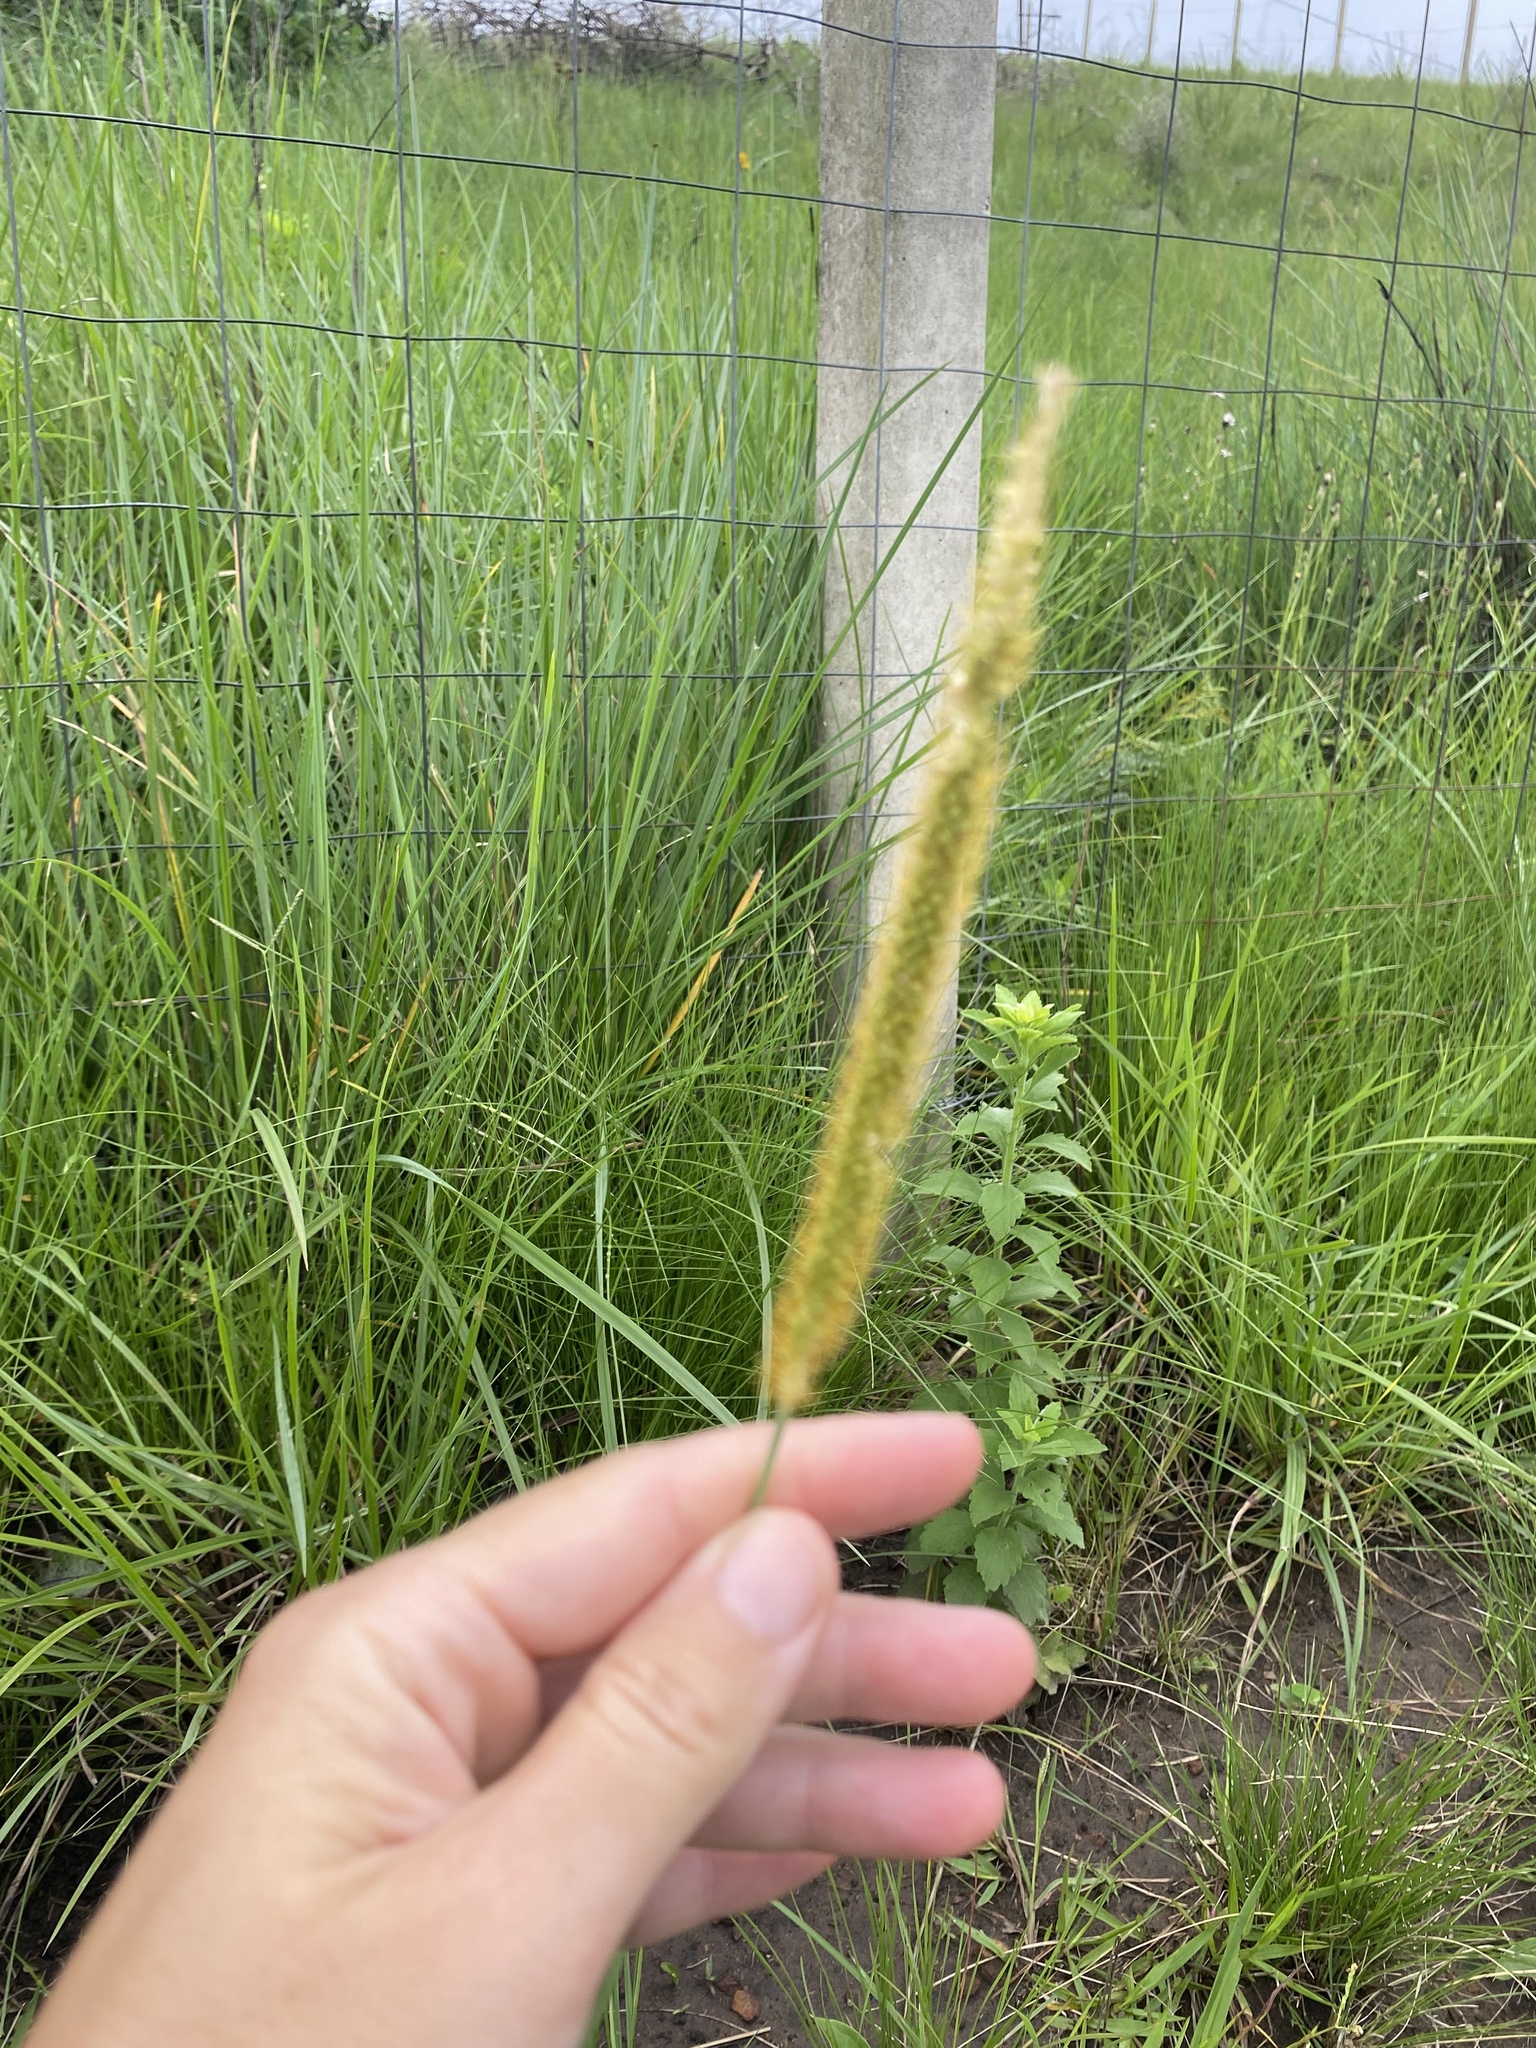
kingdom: Plantae
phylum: Tracheophyta
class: Liliopsida
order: Poales
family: Poaceae
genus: Setaria
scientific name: Setaria sphacelata
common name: African bristlegrass
